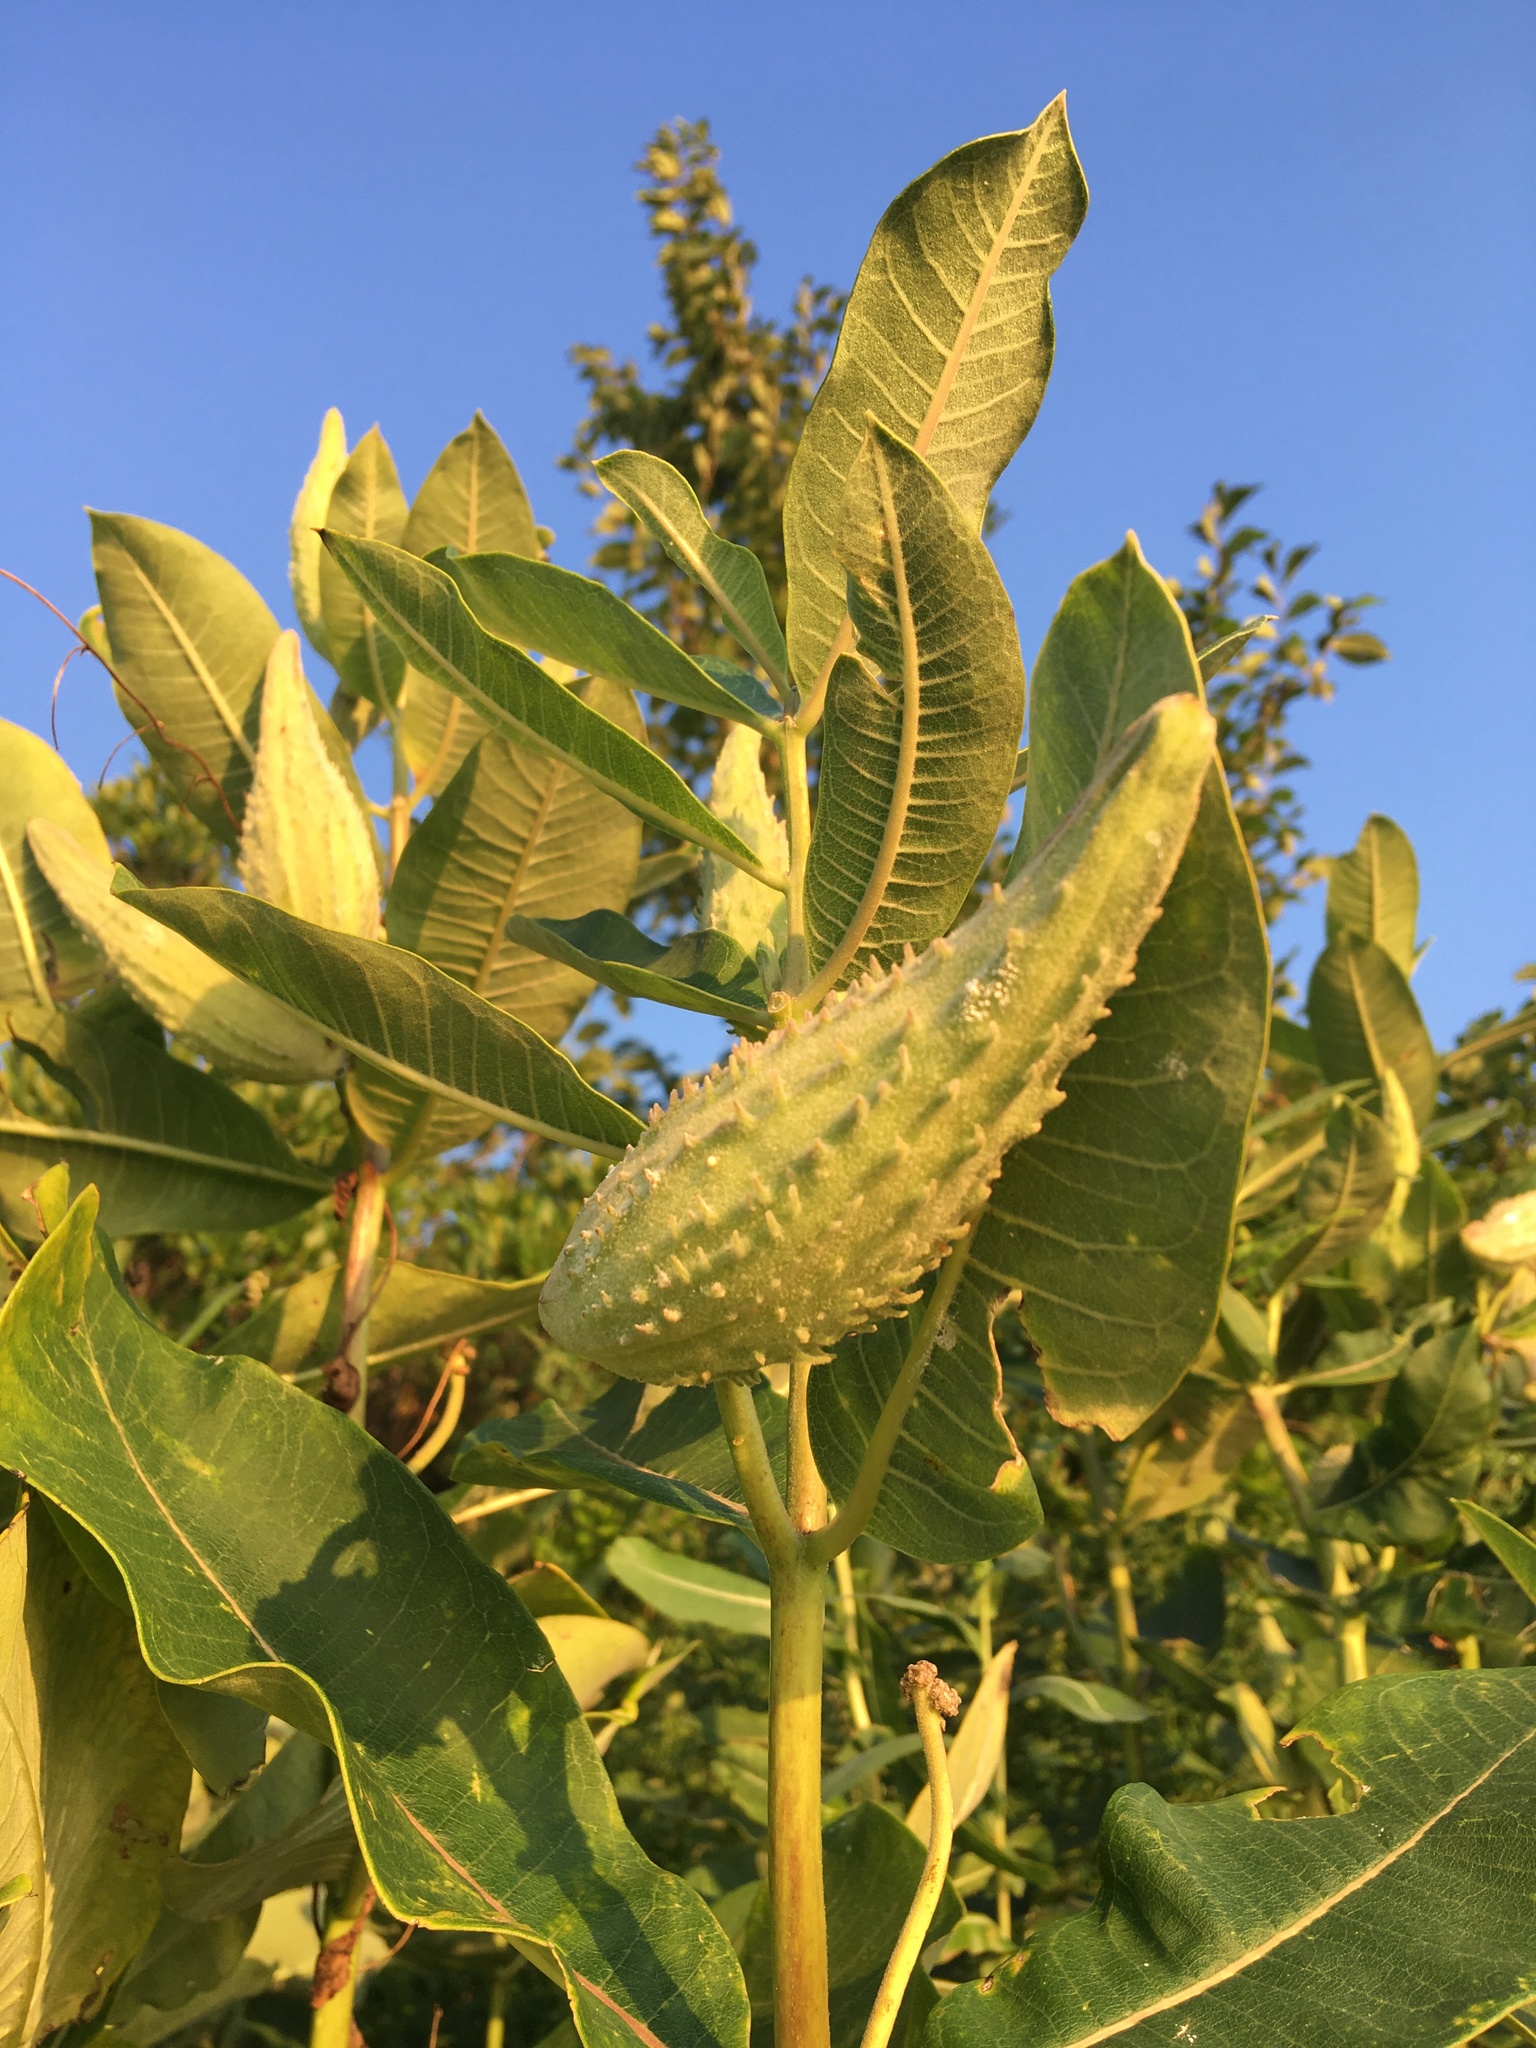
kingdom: Plantae
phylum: Tracheophyta
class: Magnoliopsida
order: Gentianales
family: Apocynaceae
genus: Asclepias
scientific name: Asclepias syriaca
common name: Common milkweed
